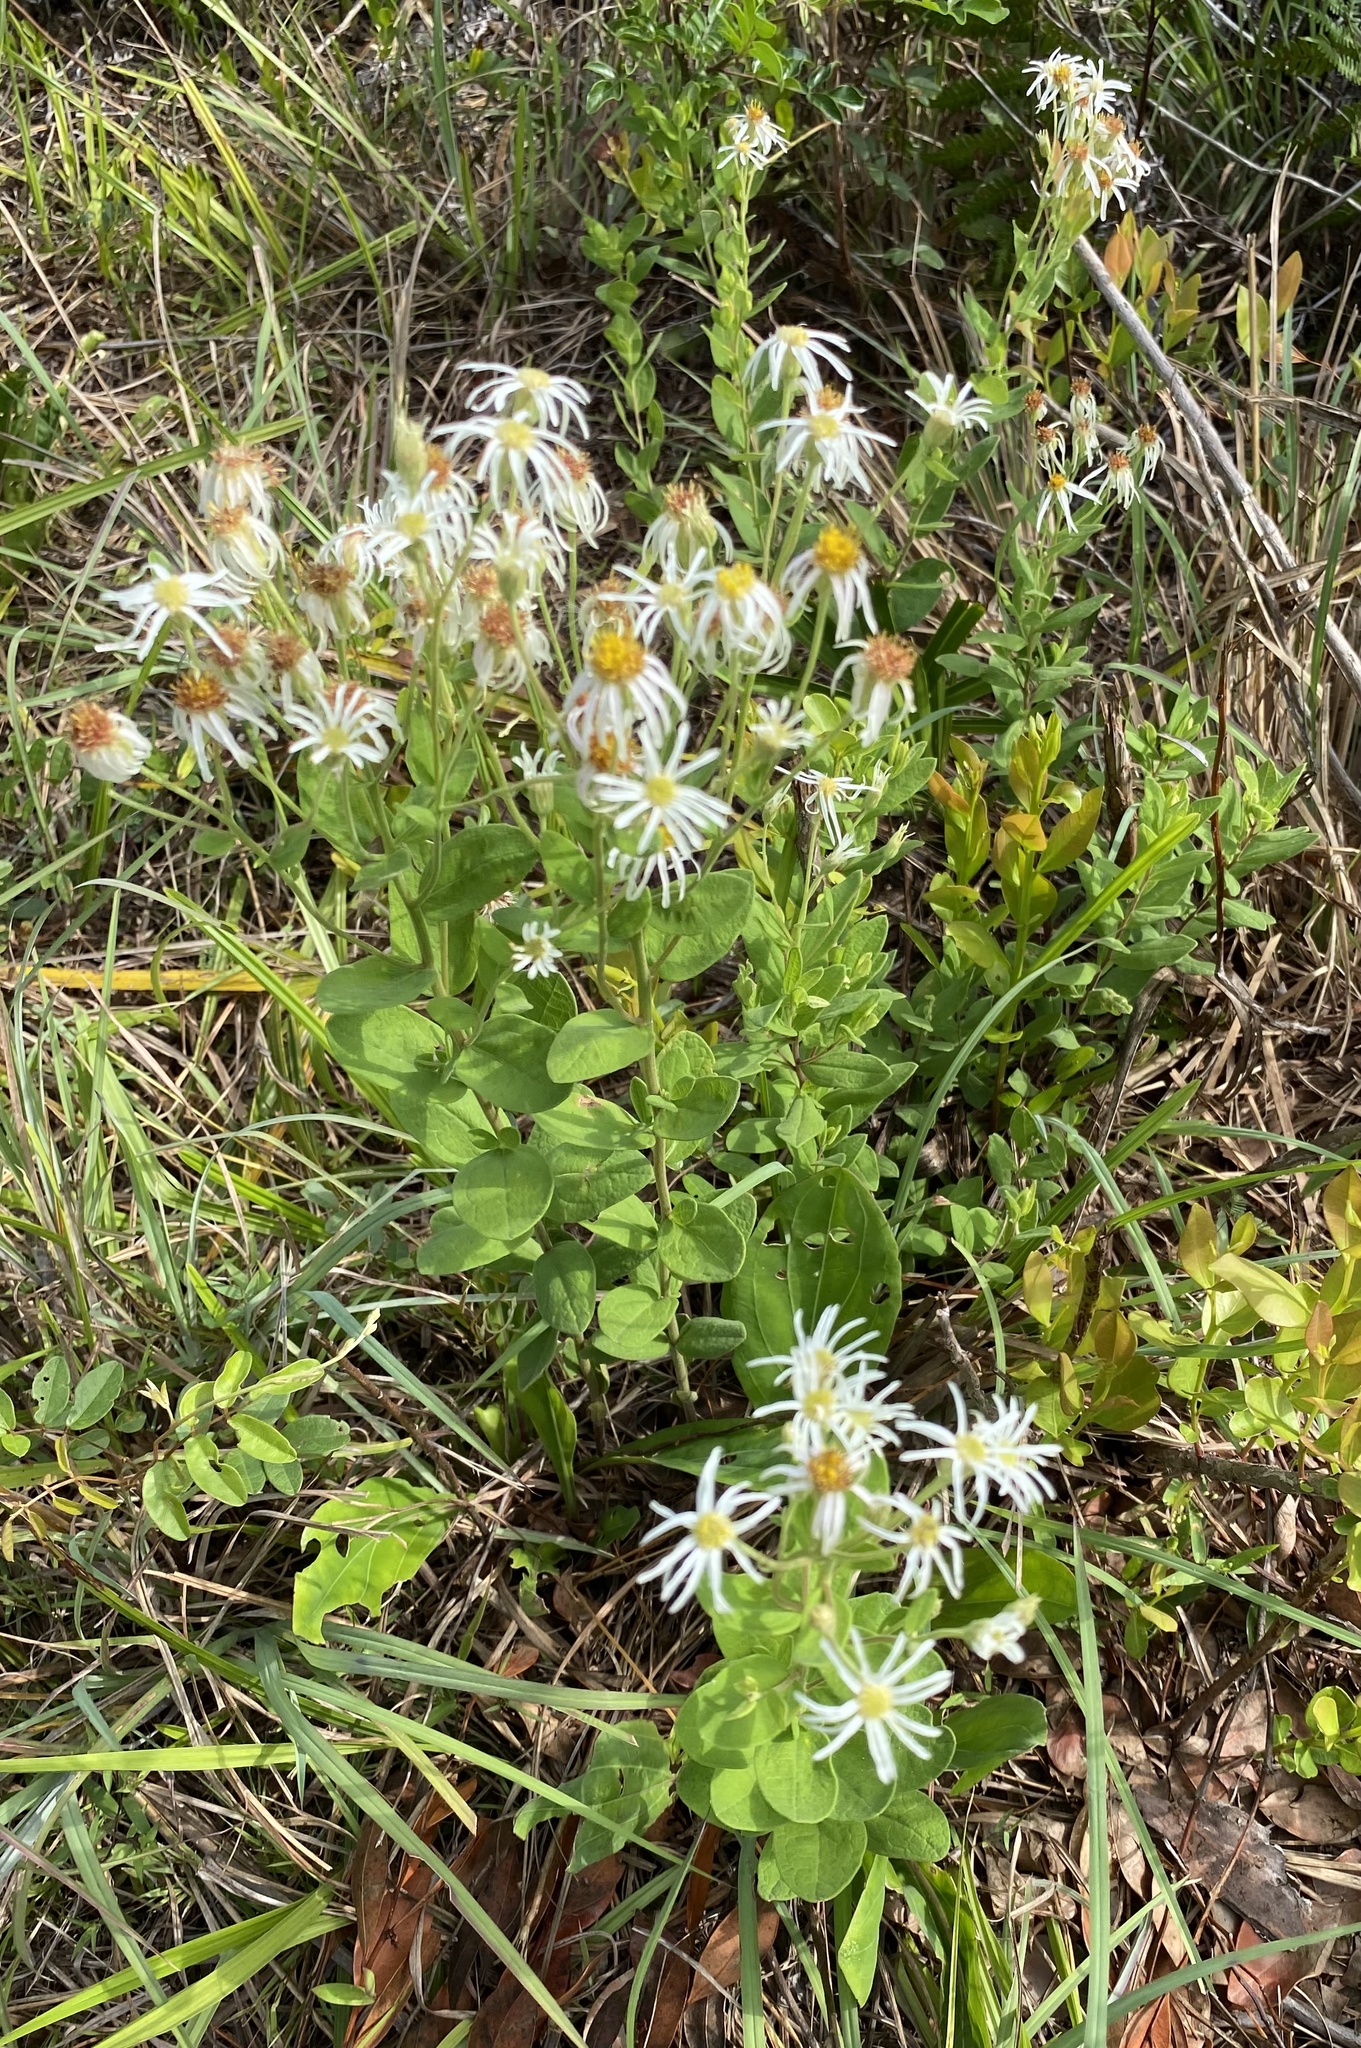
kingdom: Plantae
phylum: Tracheophyta
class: Magnoliopsida
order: Asterales
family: Asteraceae
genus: Oclemena
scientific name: Oclemena reticulata
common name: Pinebarren aster
